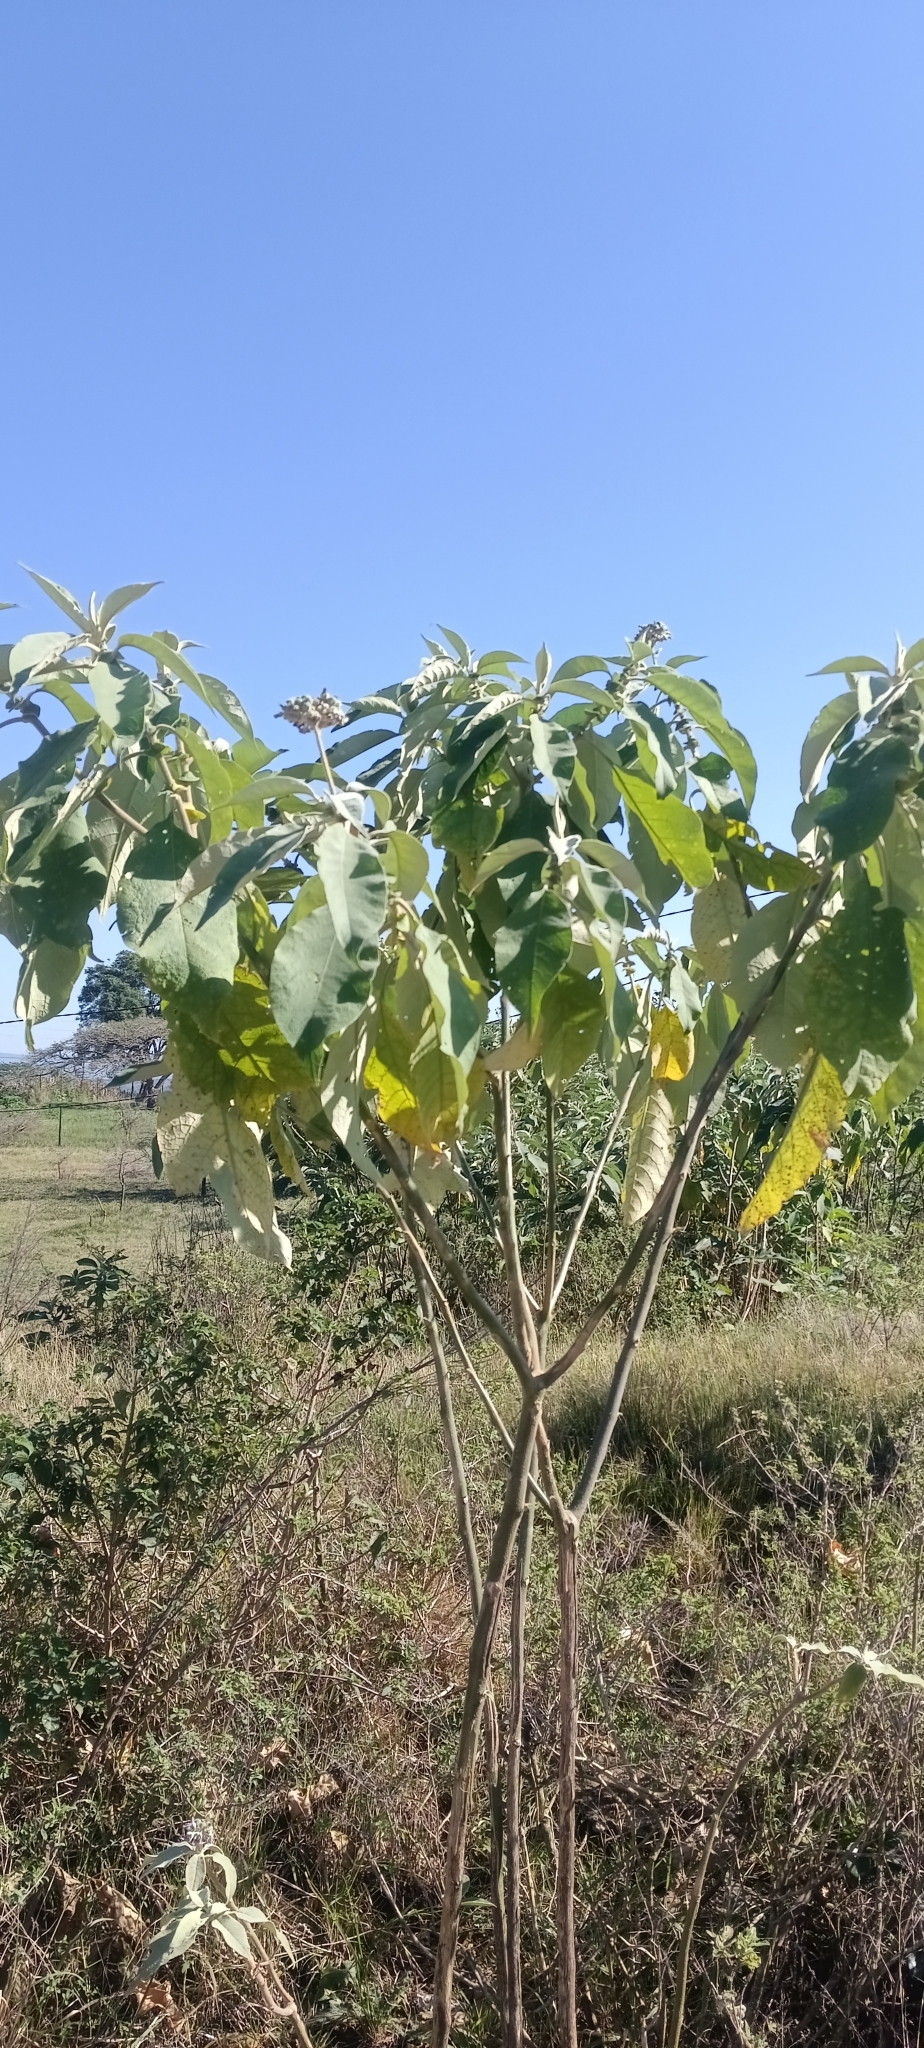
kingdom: Plantae
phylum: Tracheophyta
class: Magnoliopsida
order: Solanales
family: Solanaceae
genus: Solanum
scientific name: Solanum mauritianum
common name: Earleaf nightshade
